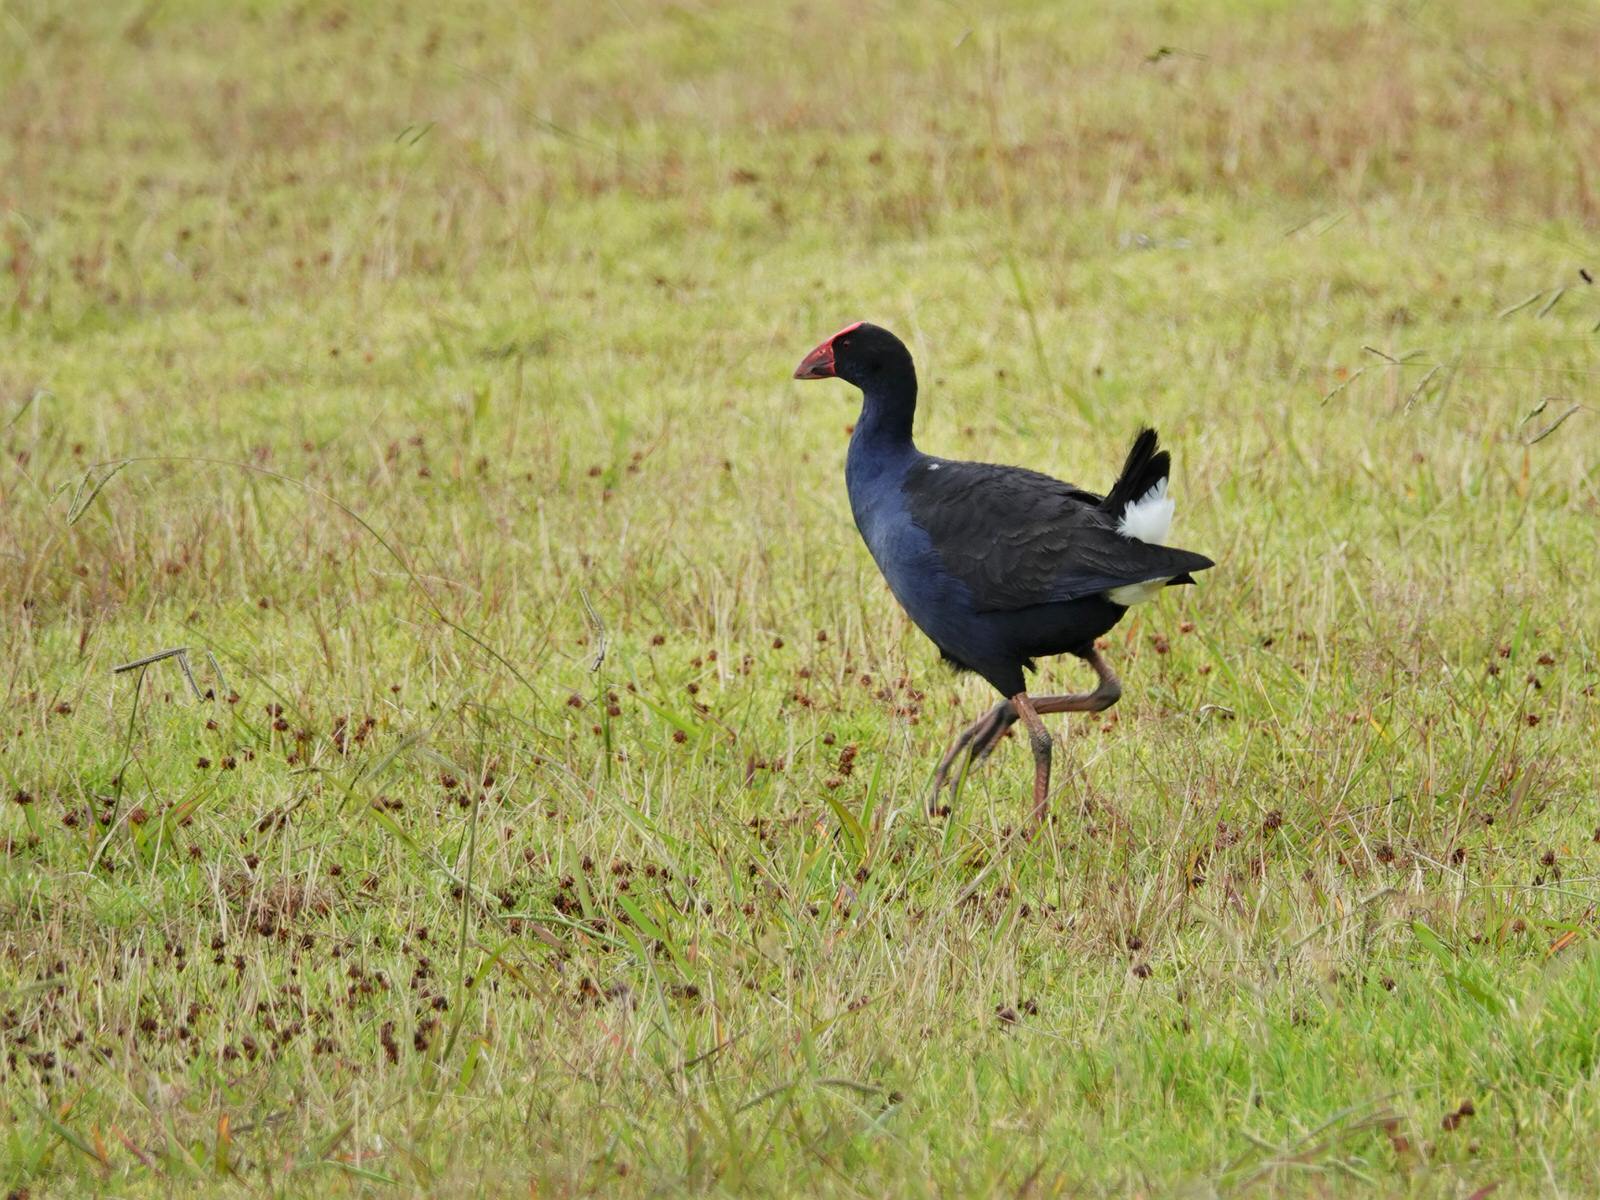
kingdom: Animalia
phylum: Chordata
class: Aves
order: Gruiformes
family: Rallidae
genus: Porphyrio
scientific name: Porphyrio melanotus
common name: Australasian swamphen
